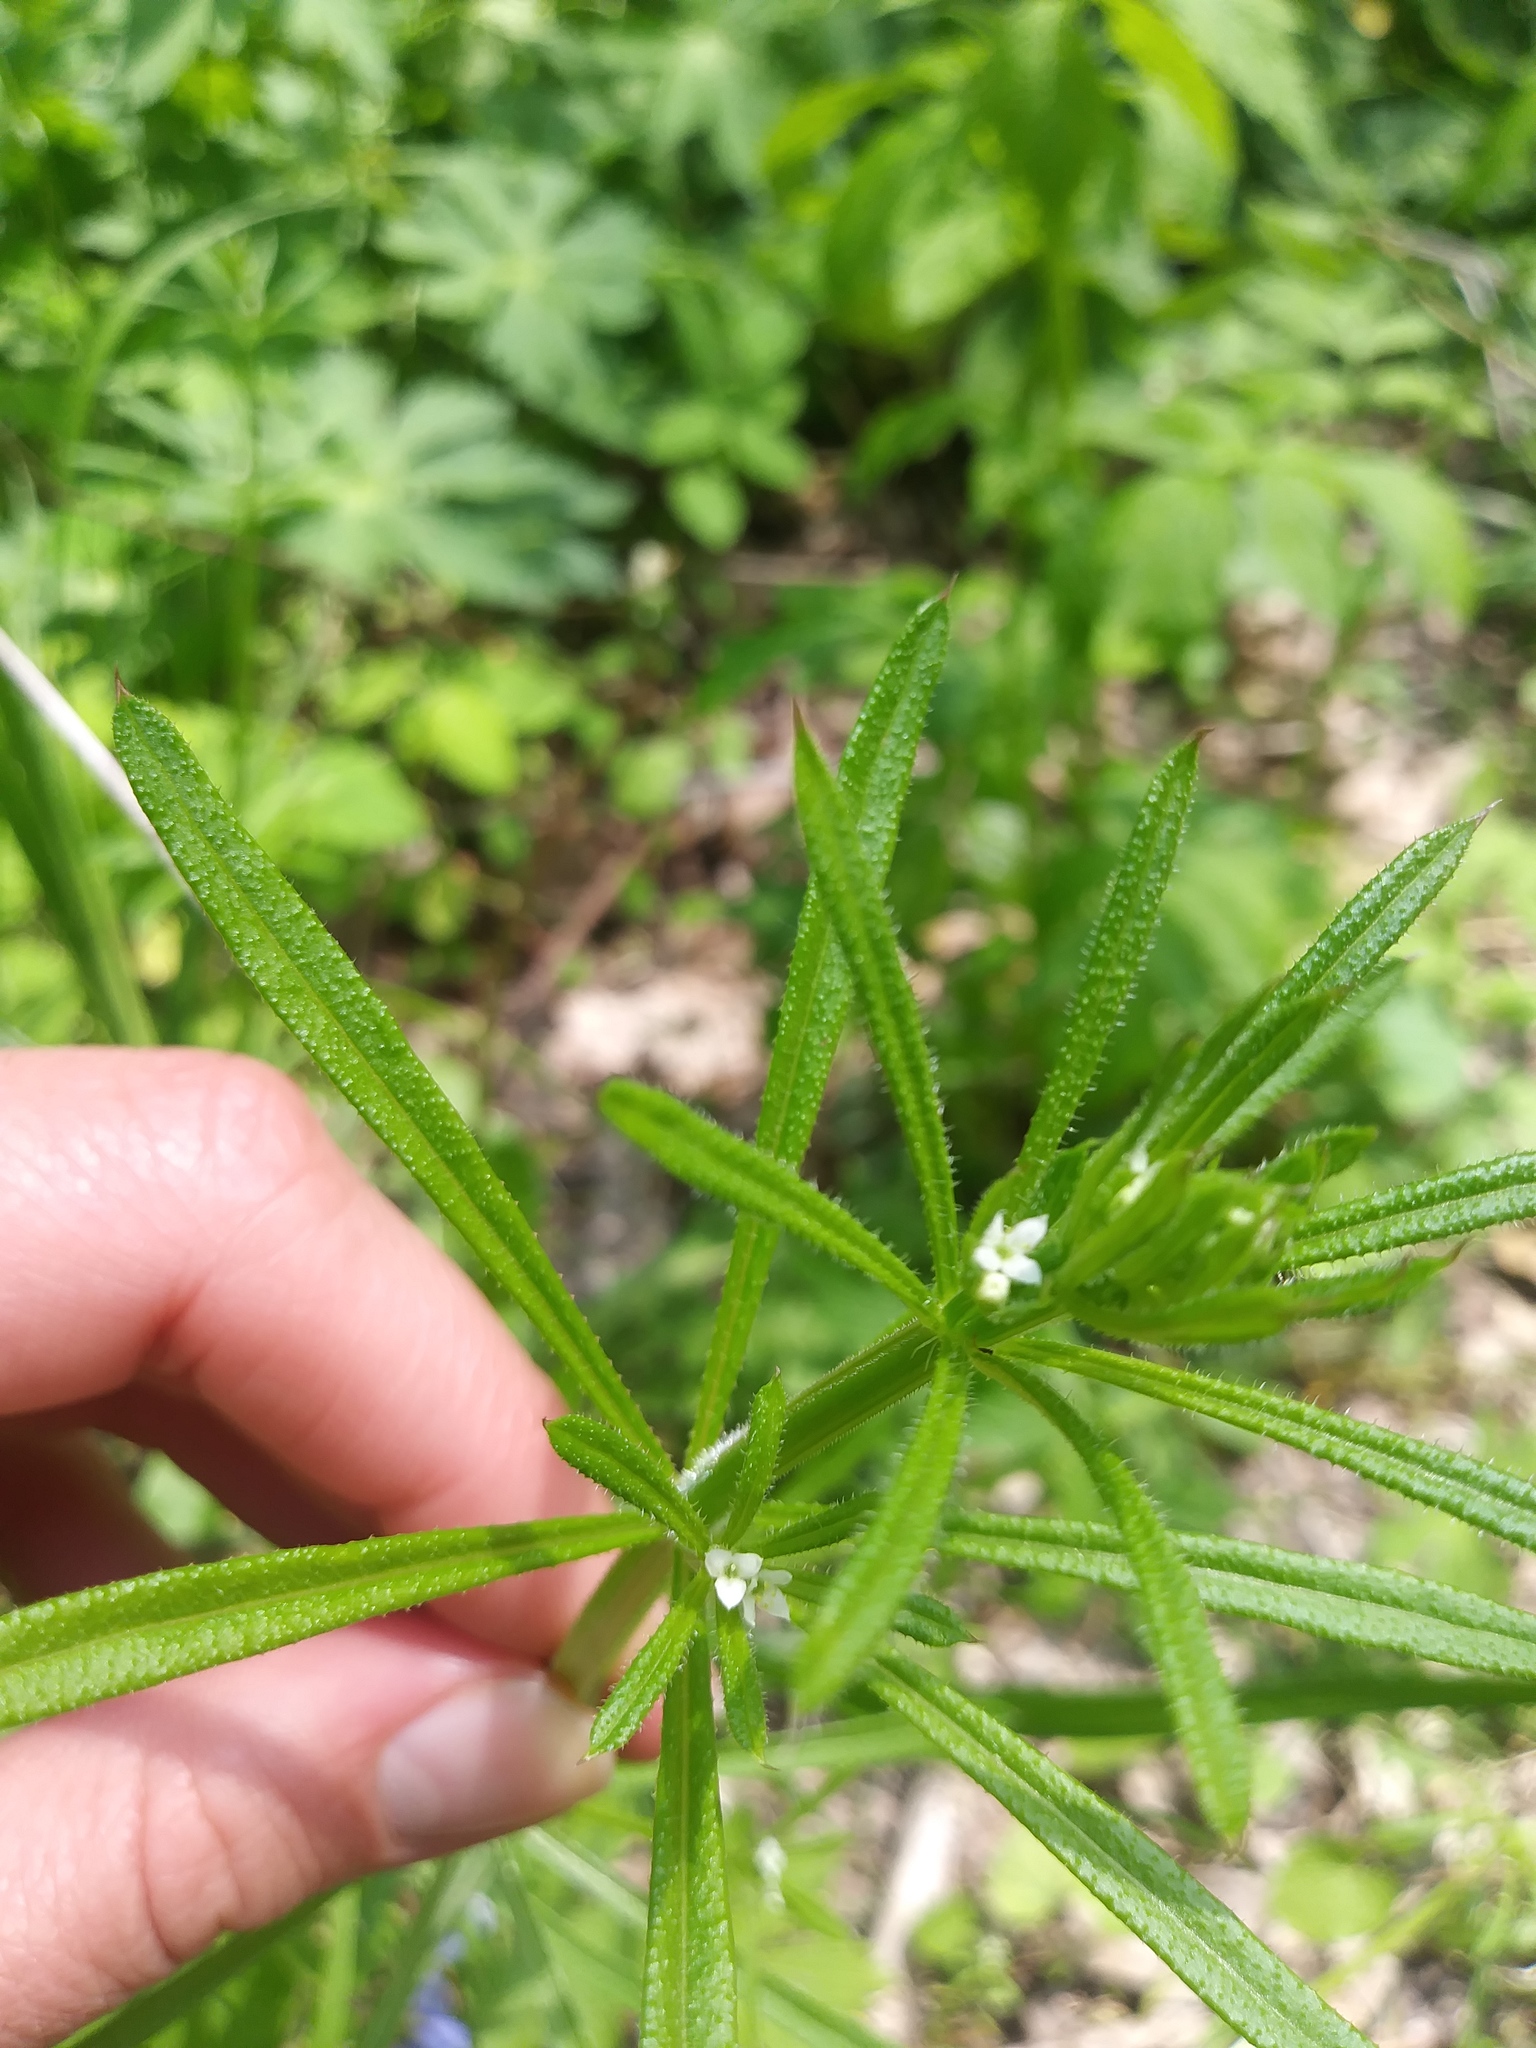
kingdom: Plantae
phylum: Tracheophyta
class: Magnoliopsida
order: Gentianales
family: Rubiaceae
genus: Galium
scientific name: Galium aparine
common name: Cleavers
